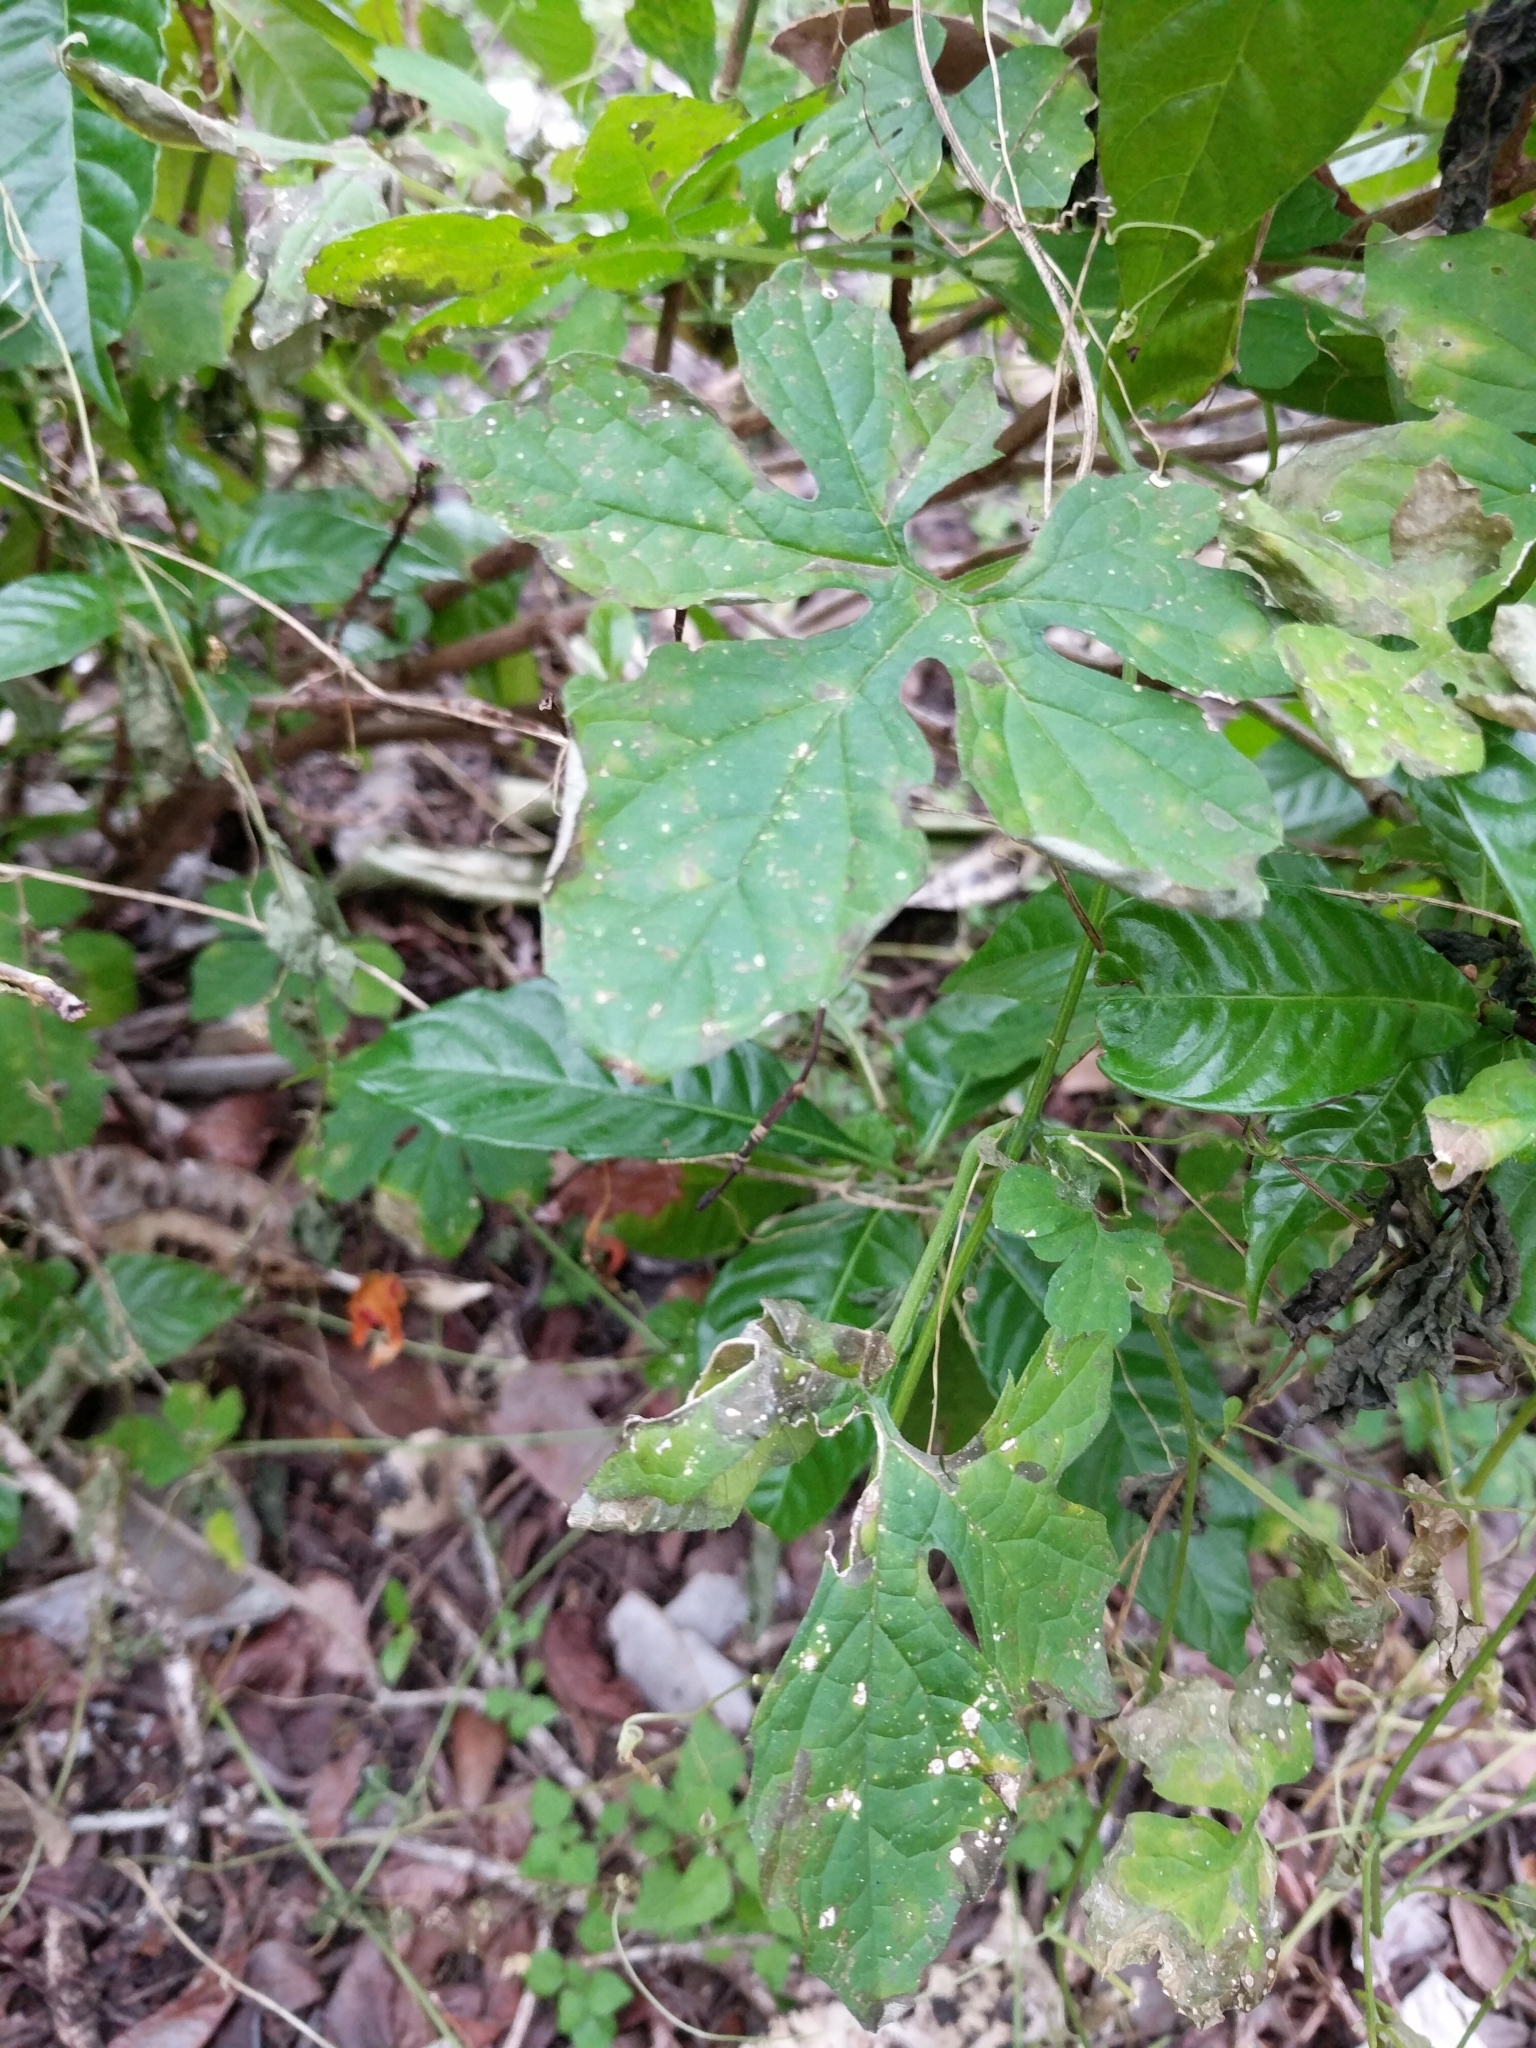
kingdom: Plantae
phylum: Tracheophyta
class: Magnoliopsida
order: Cucurbitales
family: Cucurbitaceae
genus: Momordica
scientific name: Momordica charantia
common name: Balsampear
